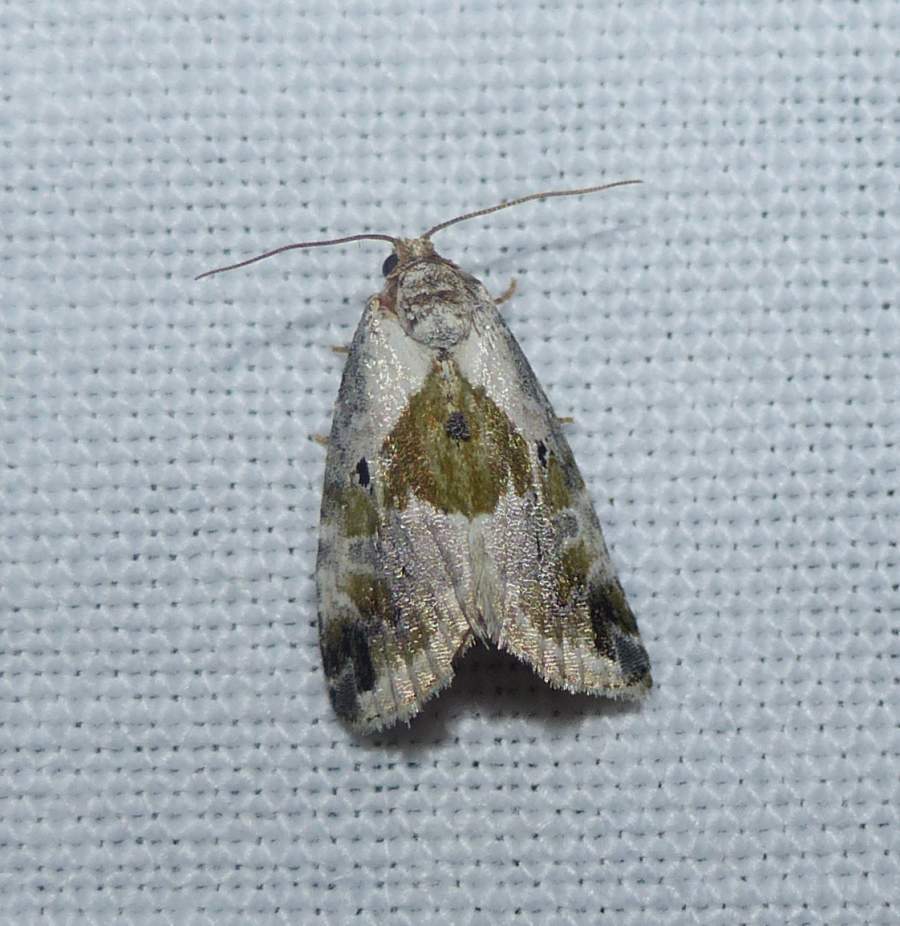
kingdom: Animalia
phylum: Arthropoda
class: Insecta
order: Lepidoptera
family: Noctuidae
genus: Maliattha
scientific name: Maliattha synochitis
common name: Black-dotted glyph
